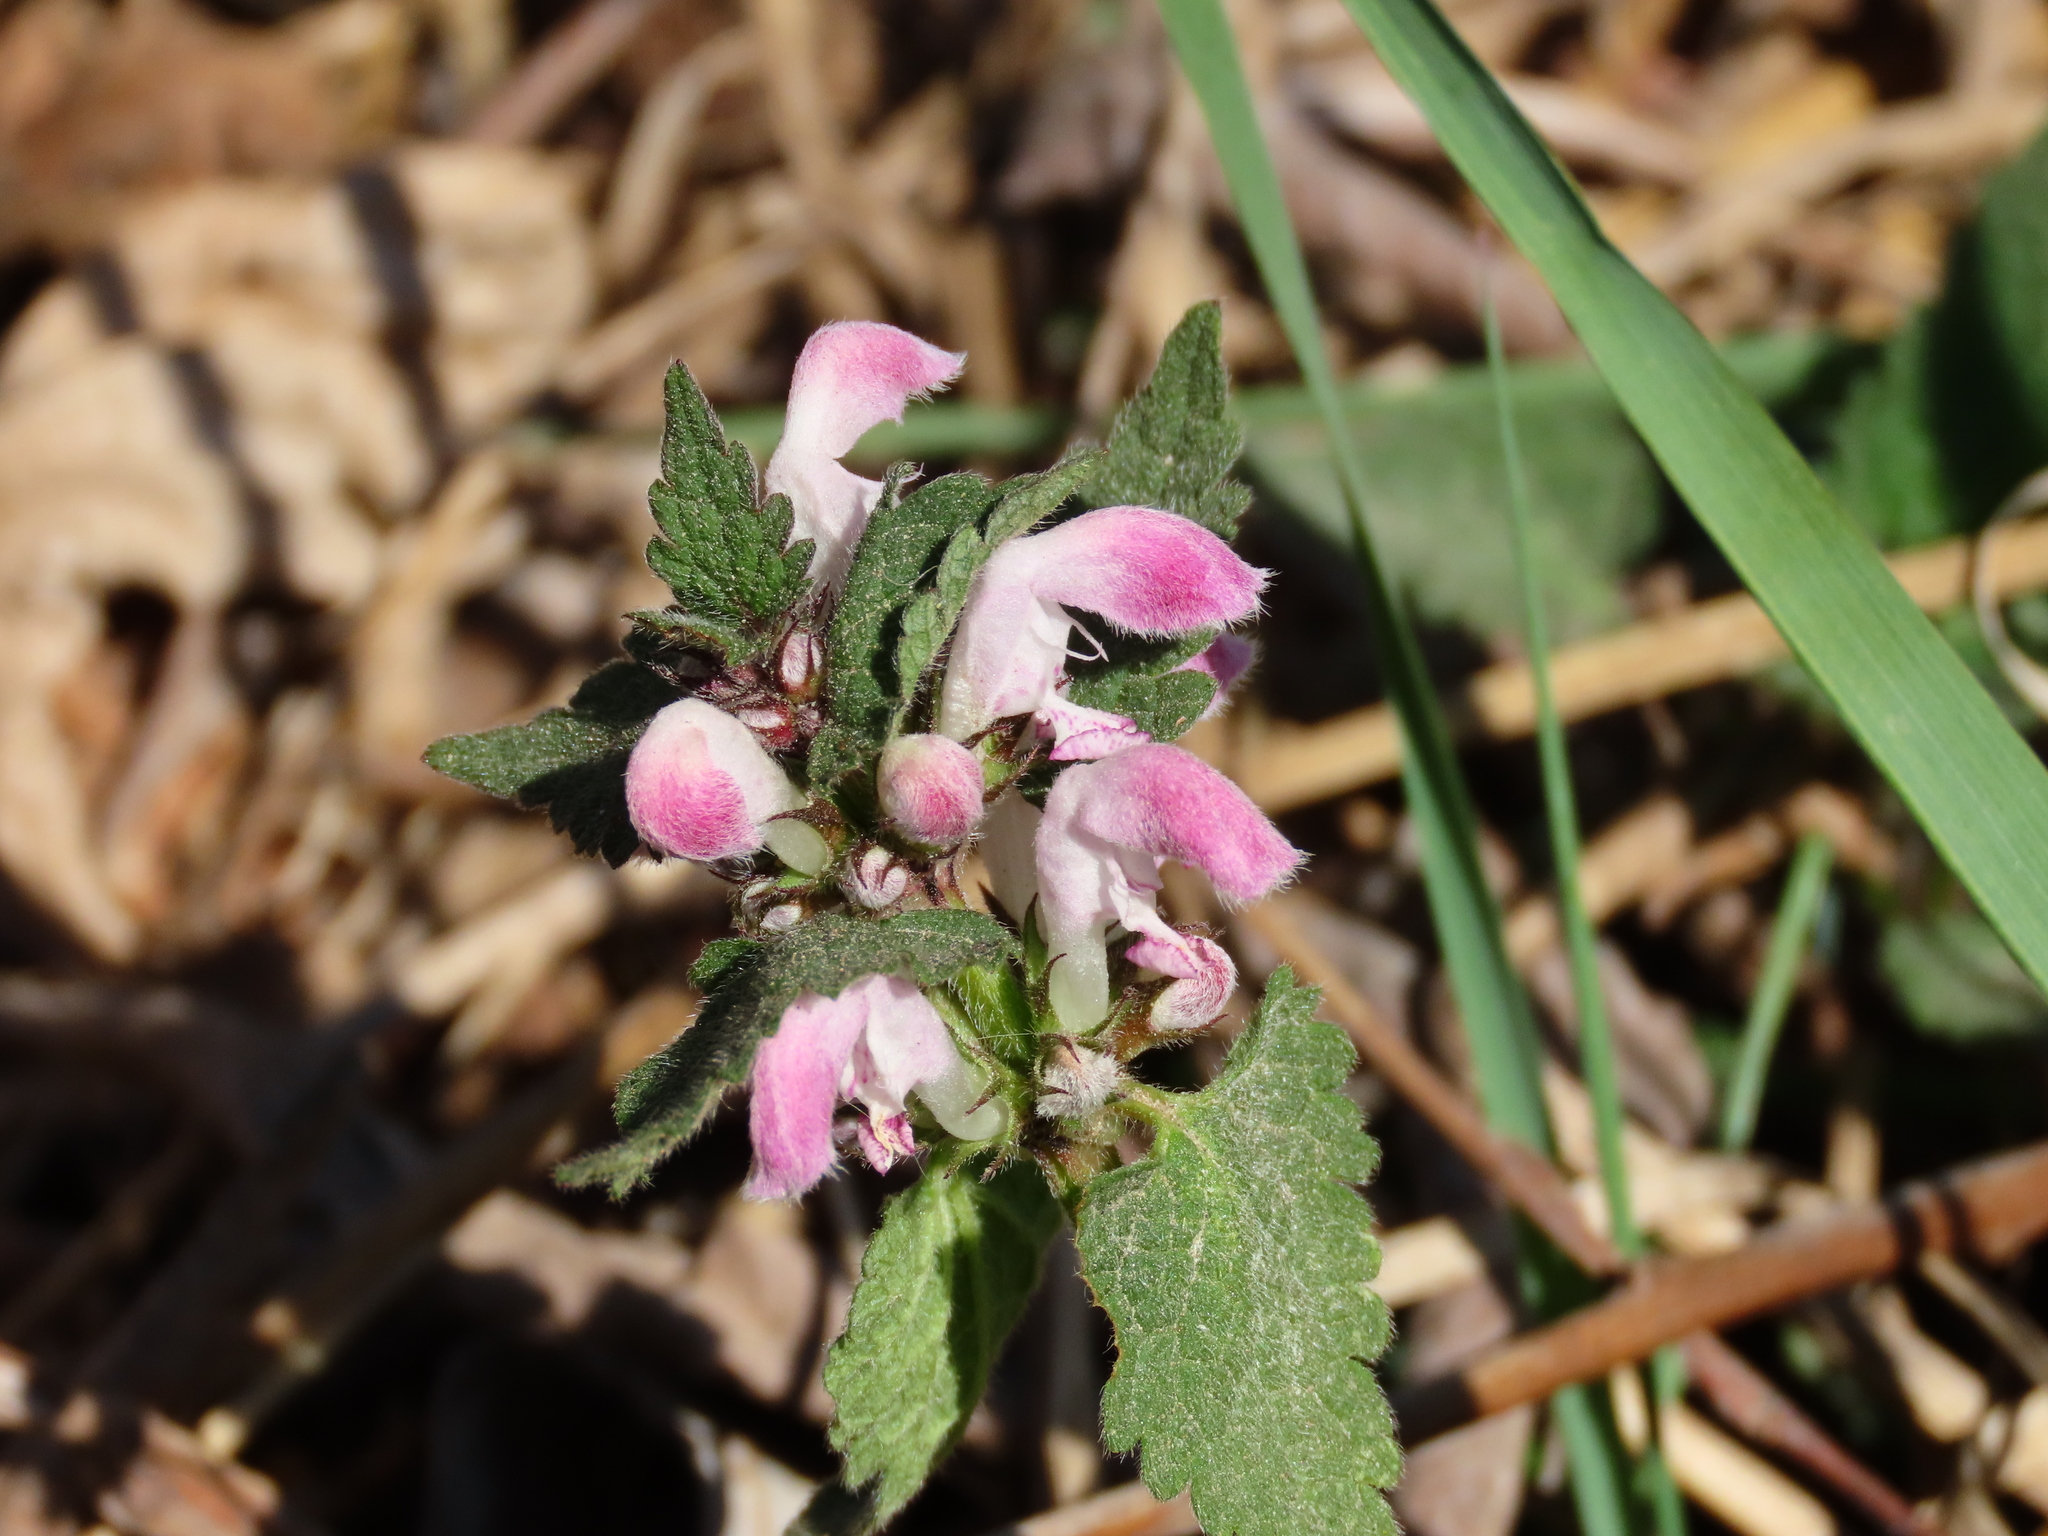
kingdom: Plantae
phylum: Tracheophyta
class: Magnoliopsida
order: Lamiales
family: Lamiaceae
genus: Lamium
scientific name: Lamium maculatum
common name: Spotted dead-nettle
